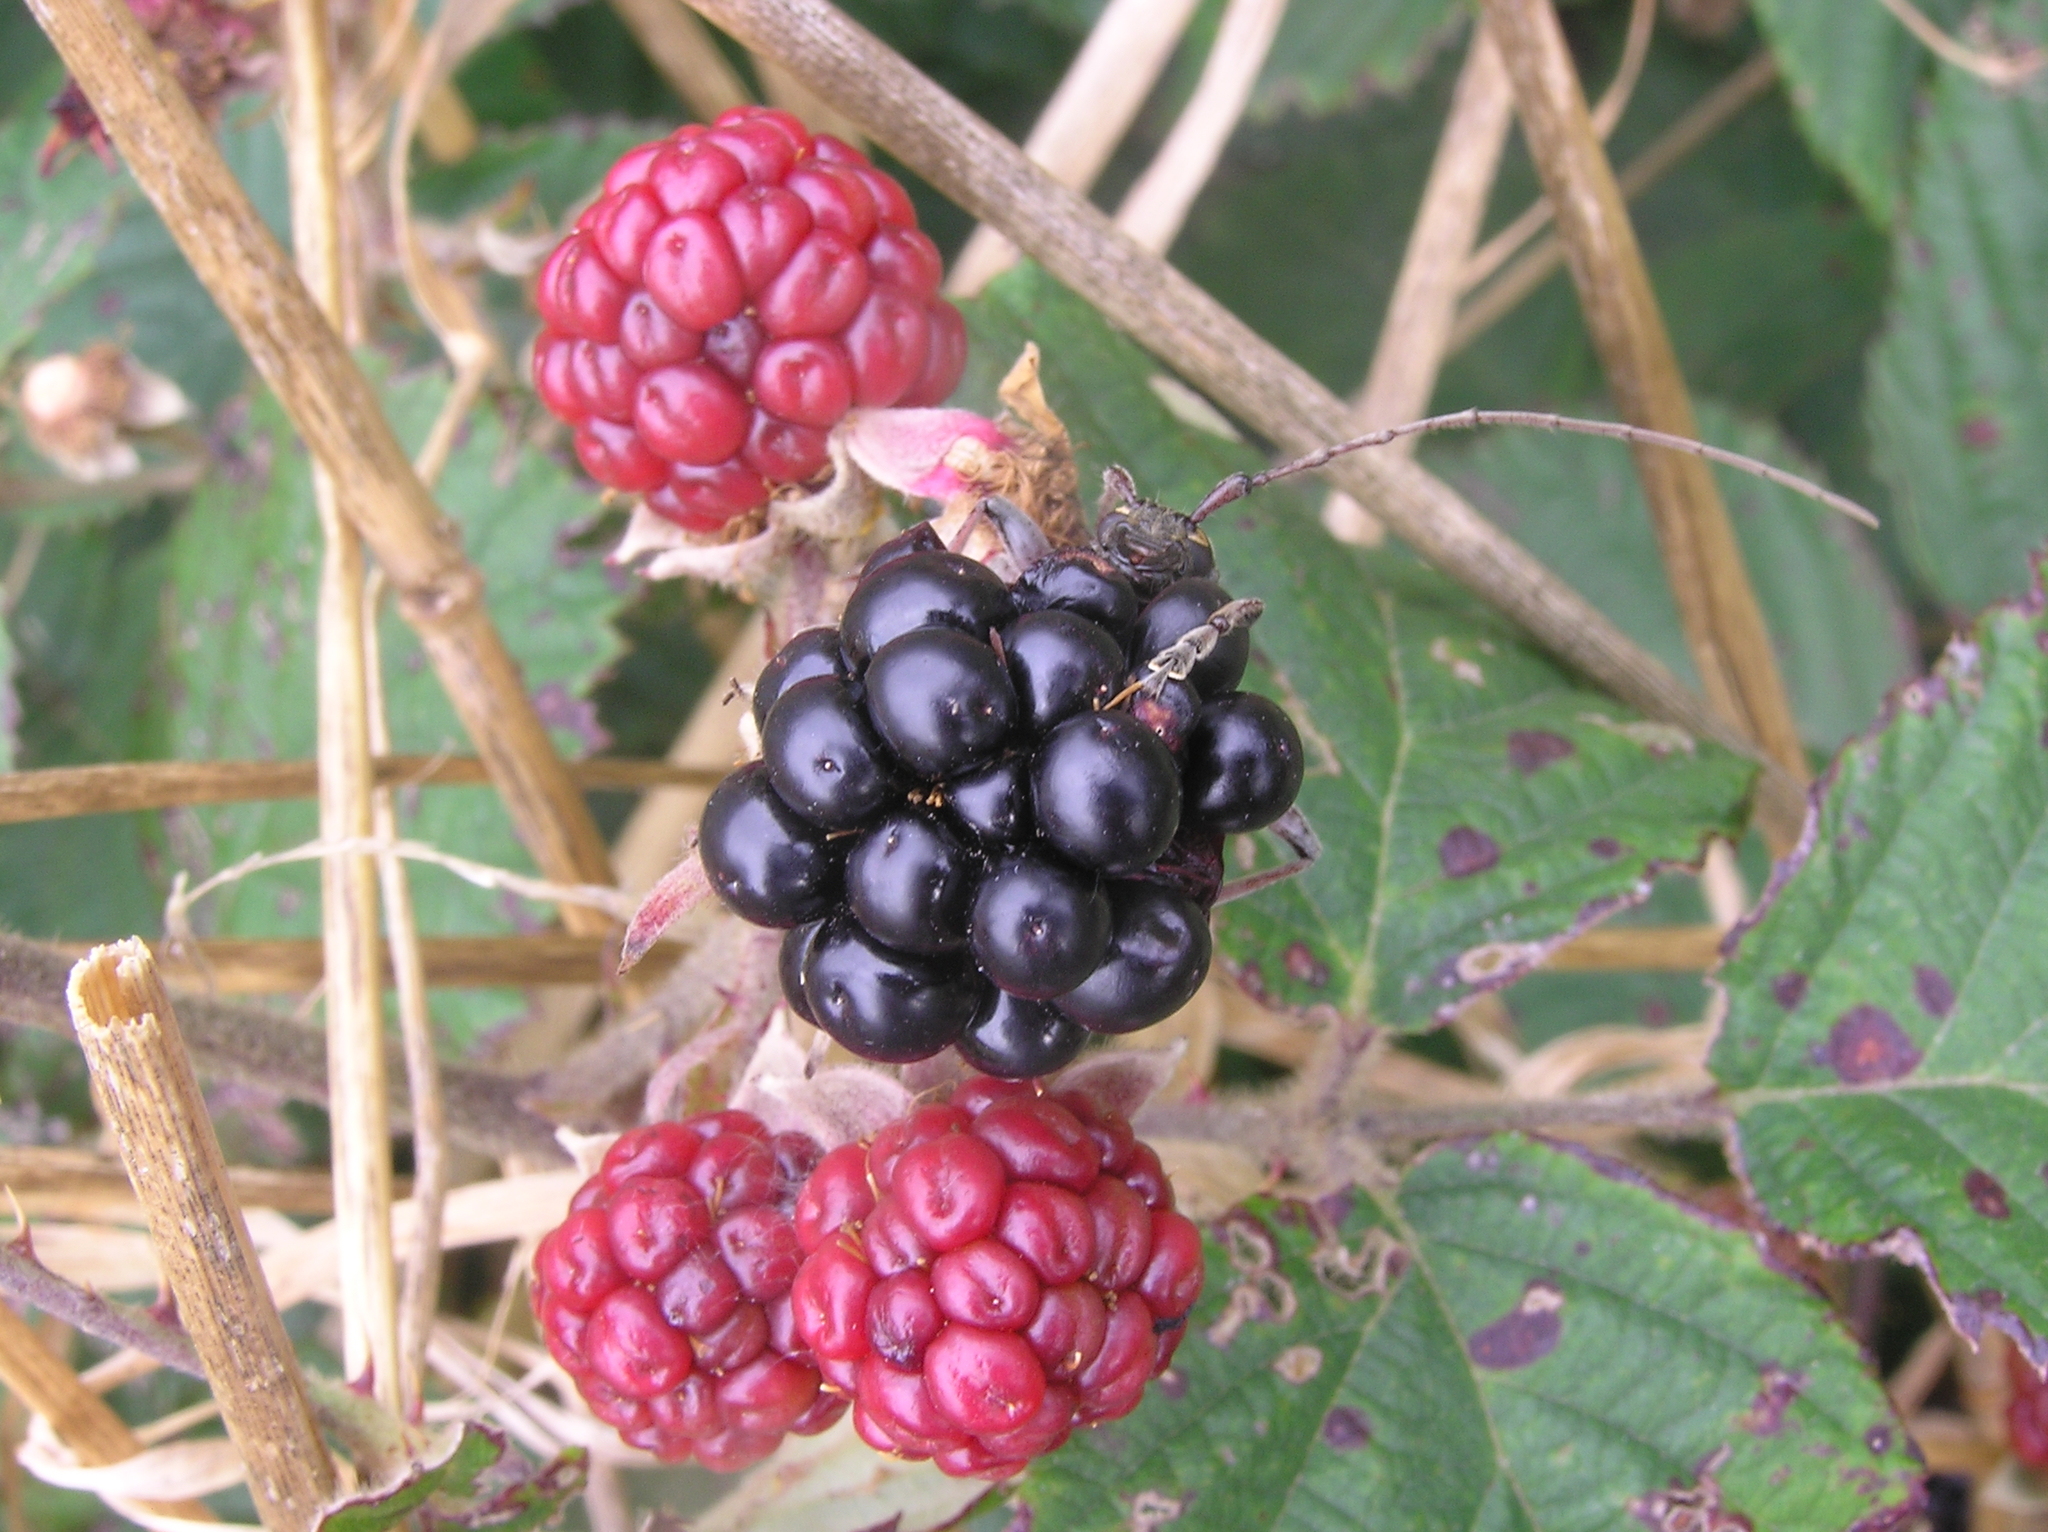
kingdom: Animalia
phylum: Arthropoda
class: Insecta
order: Coleoptera
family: Cerambycidae
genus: Oemona
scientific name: Oemona hirta
